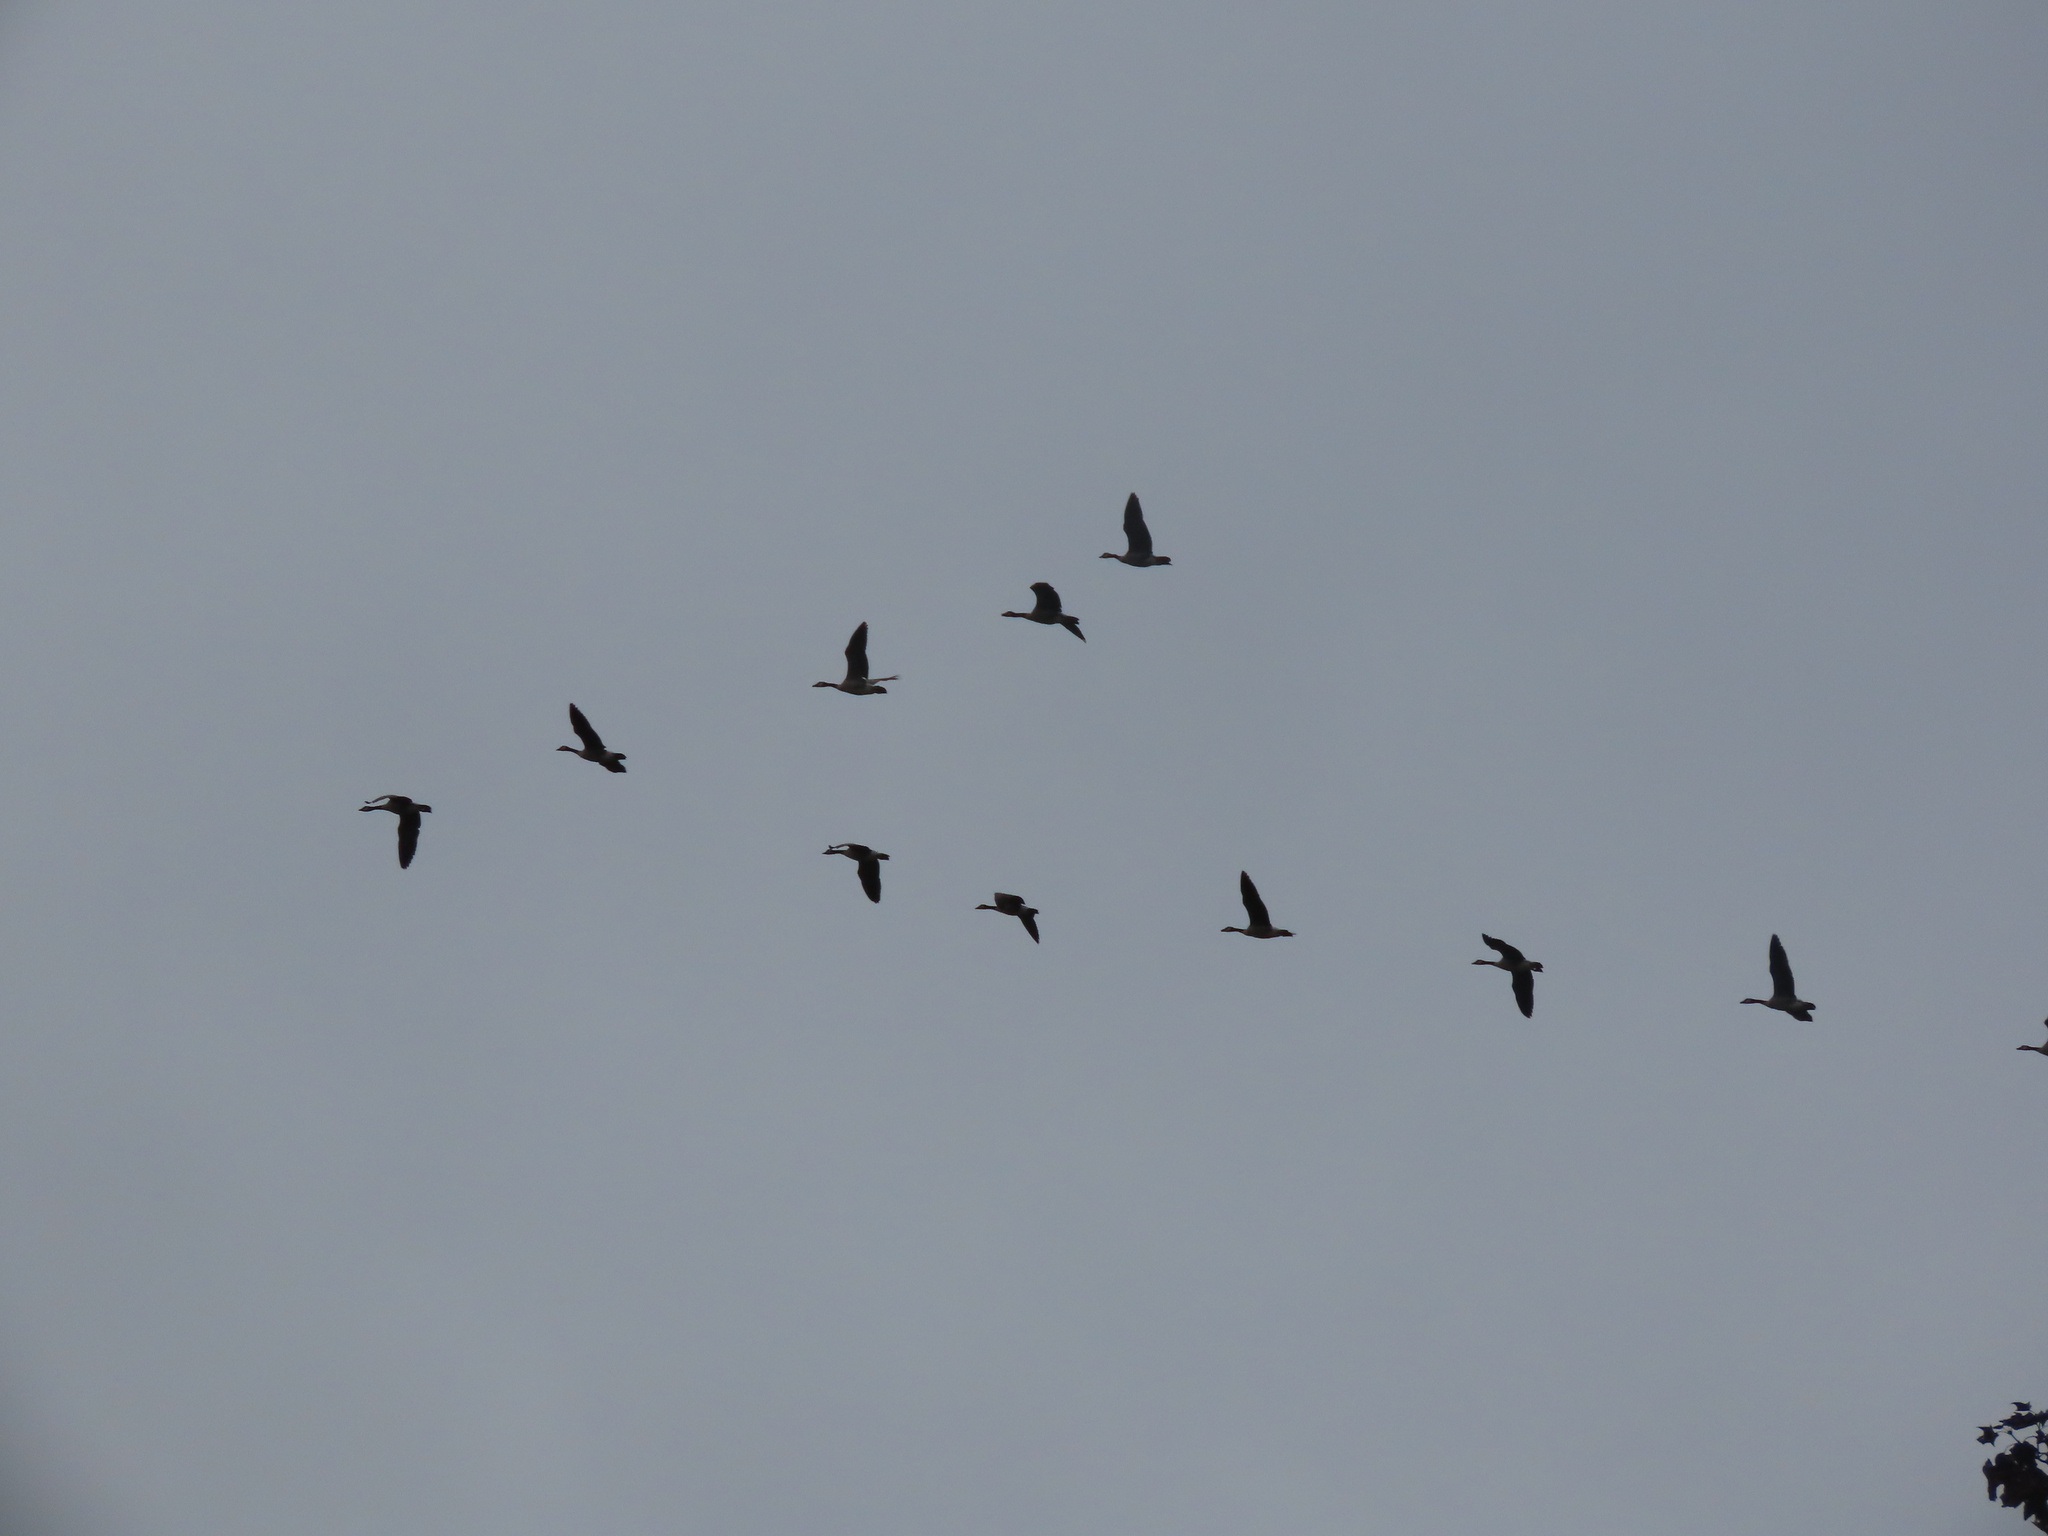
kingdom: Animalia
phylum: Chordata
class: Aves
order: Anseriformes
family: Anatidae
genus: Branta
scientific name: Branta canadensis
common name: Canada goose
